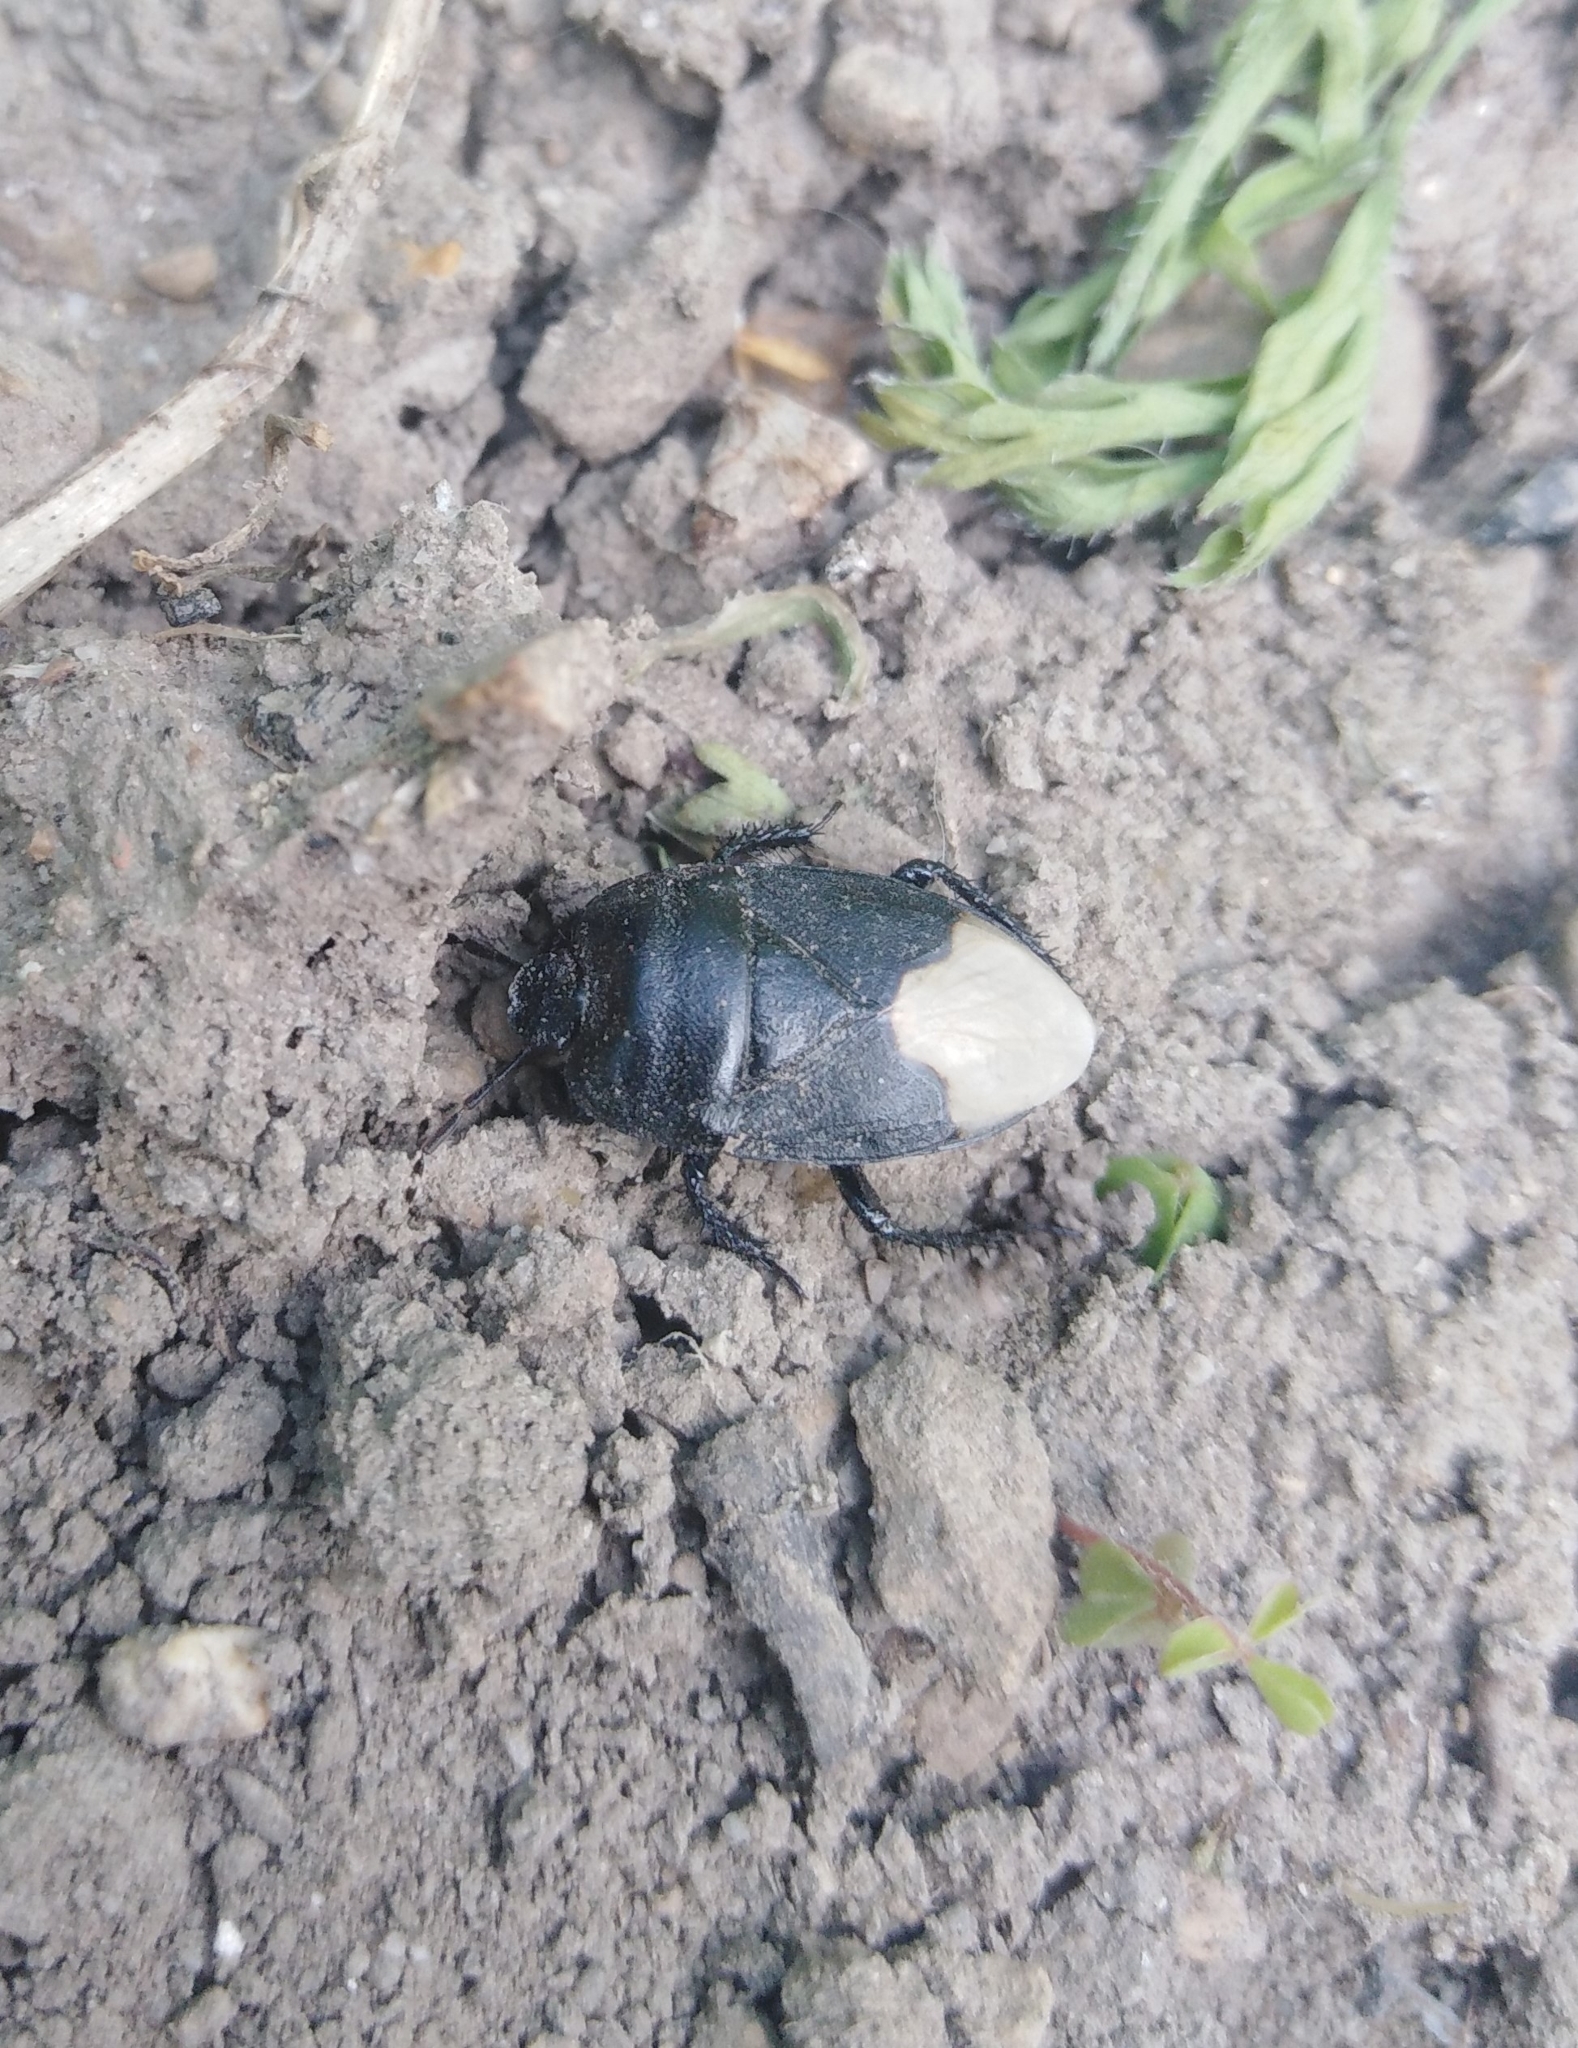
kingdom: Animalia
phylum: Arthropoda
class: Insecta
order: Hemiptera
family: Cydnidae
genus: Cydnus
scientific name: Cydnus aterrimus
